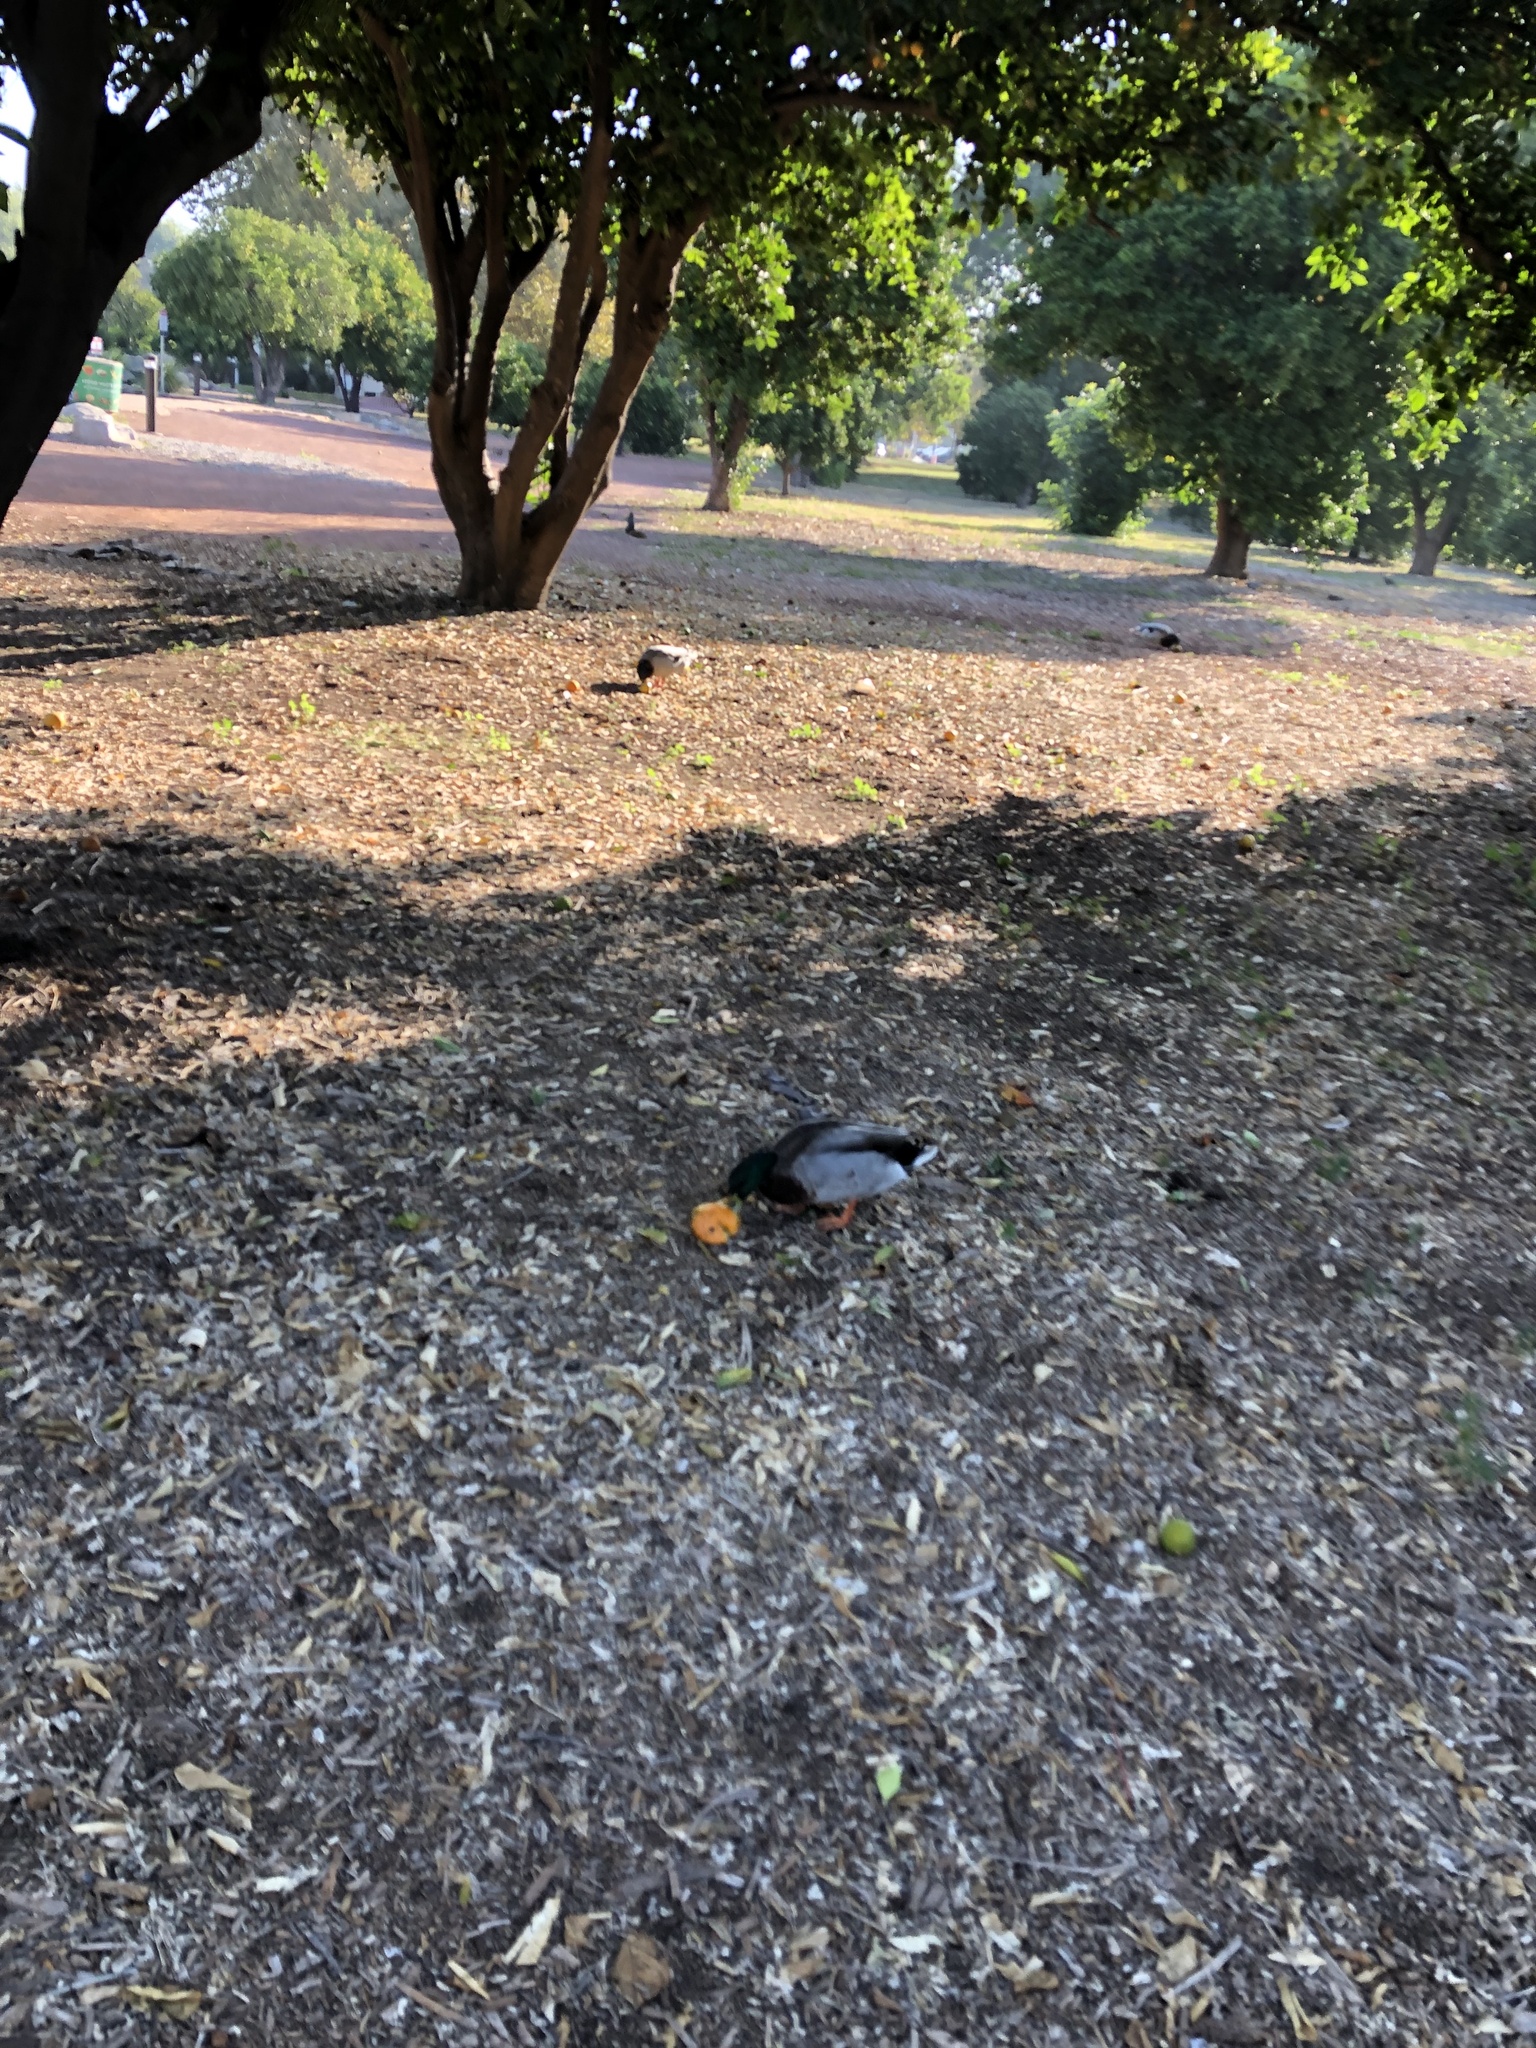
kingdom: Animalia
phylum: Chordata
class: Aves
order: Anseriformes
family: Anatidae
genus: Anas
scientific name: Anas platyrhynchos
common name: Mallard
